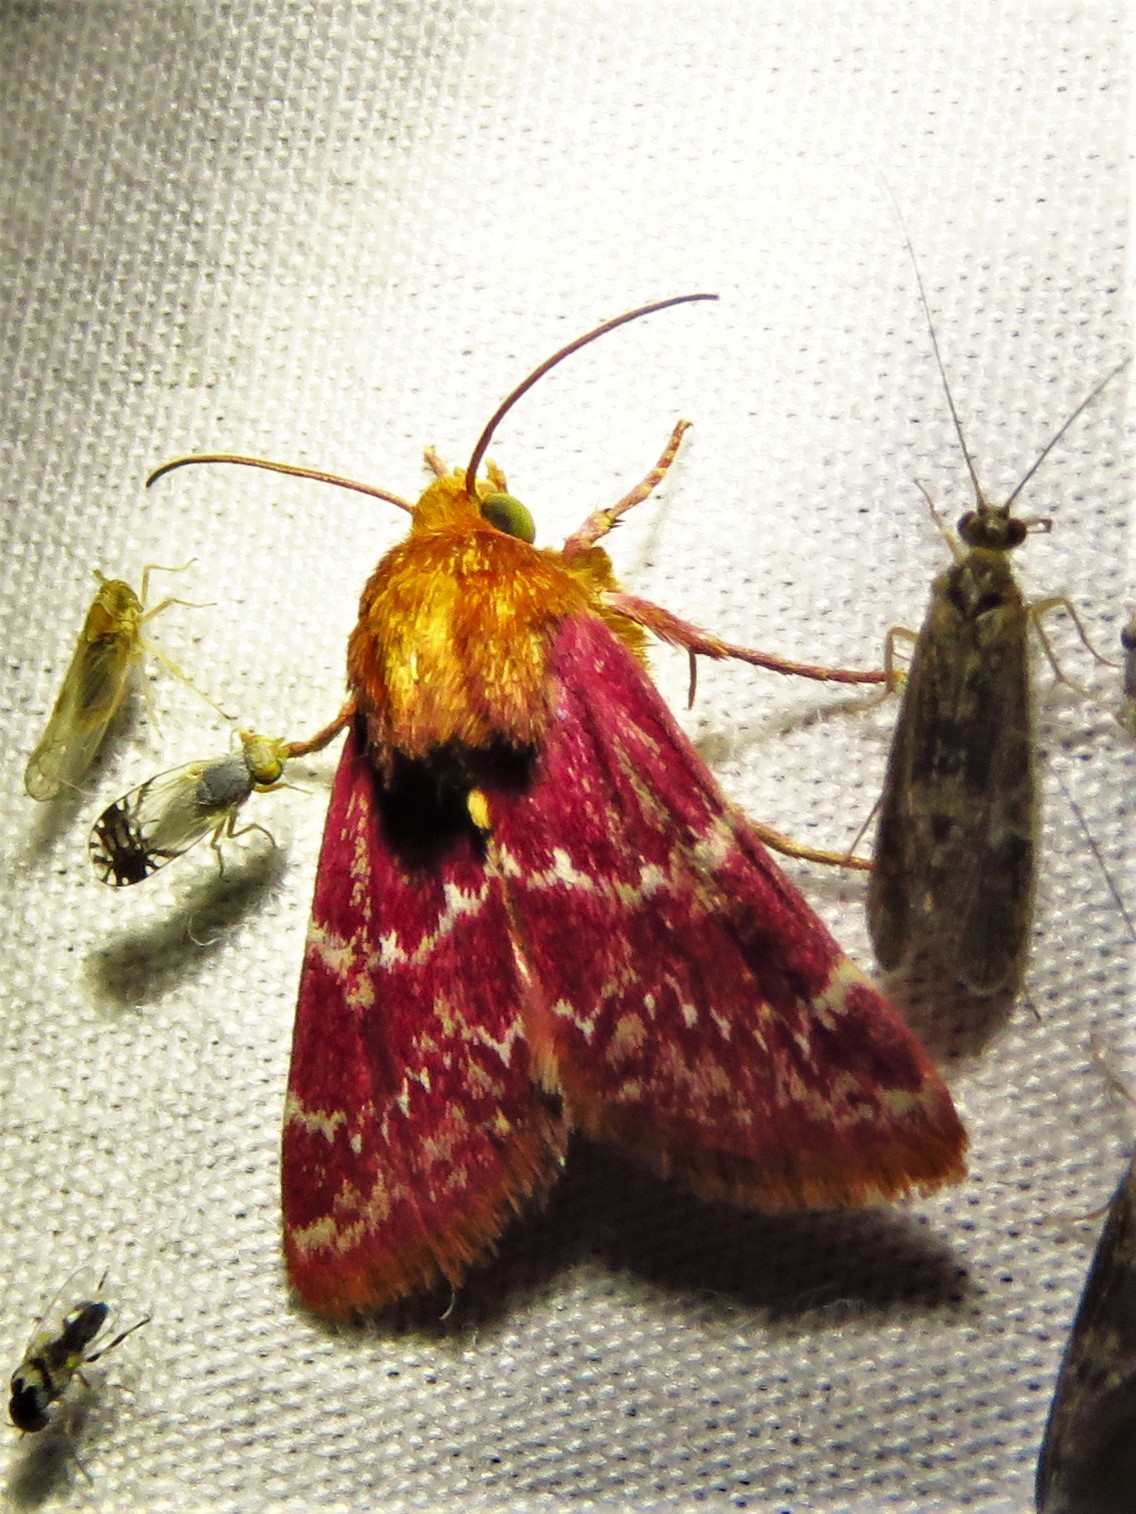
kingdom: Animalia
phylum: Arthropoda
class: Insecta
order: Lepidoptera
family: Noctuidae
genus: Schinia
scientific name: Schinia volupia
